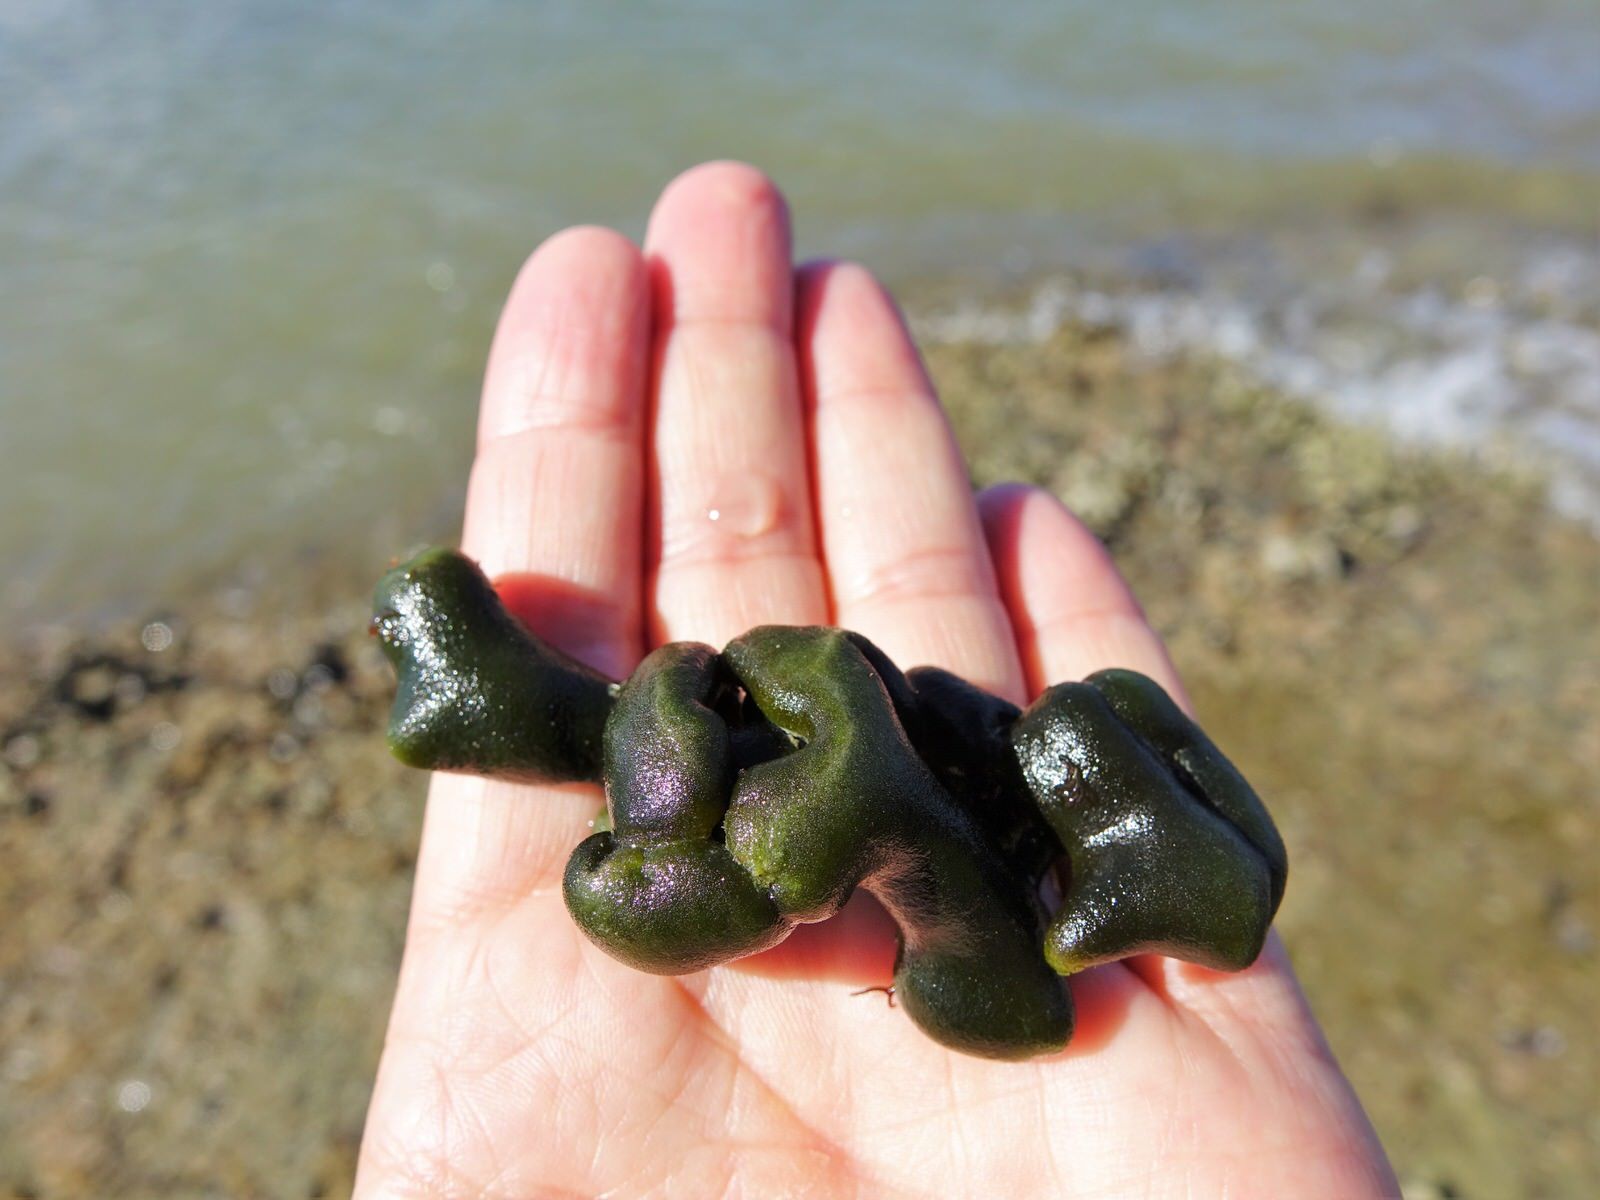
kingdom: Plantae
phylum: Chlorophyta
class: Ulvophyceae
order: Bryopsidales
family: Codiaceae
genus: Codium
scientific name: Codium convolutum
